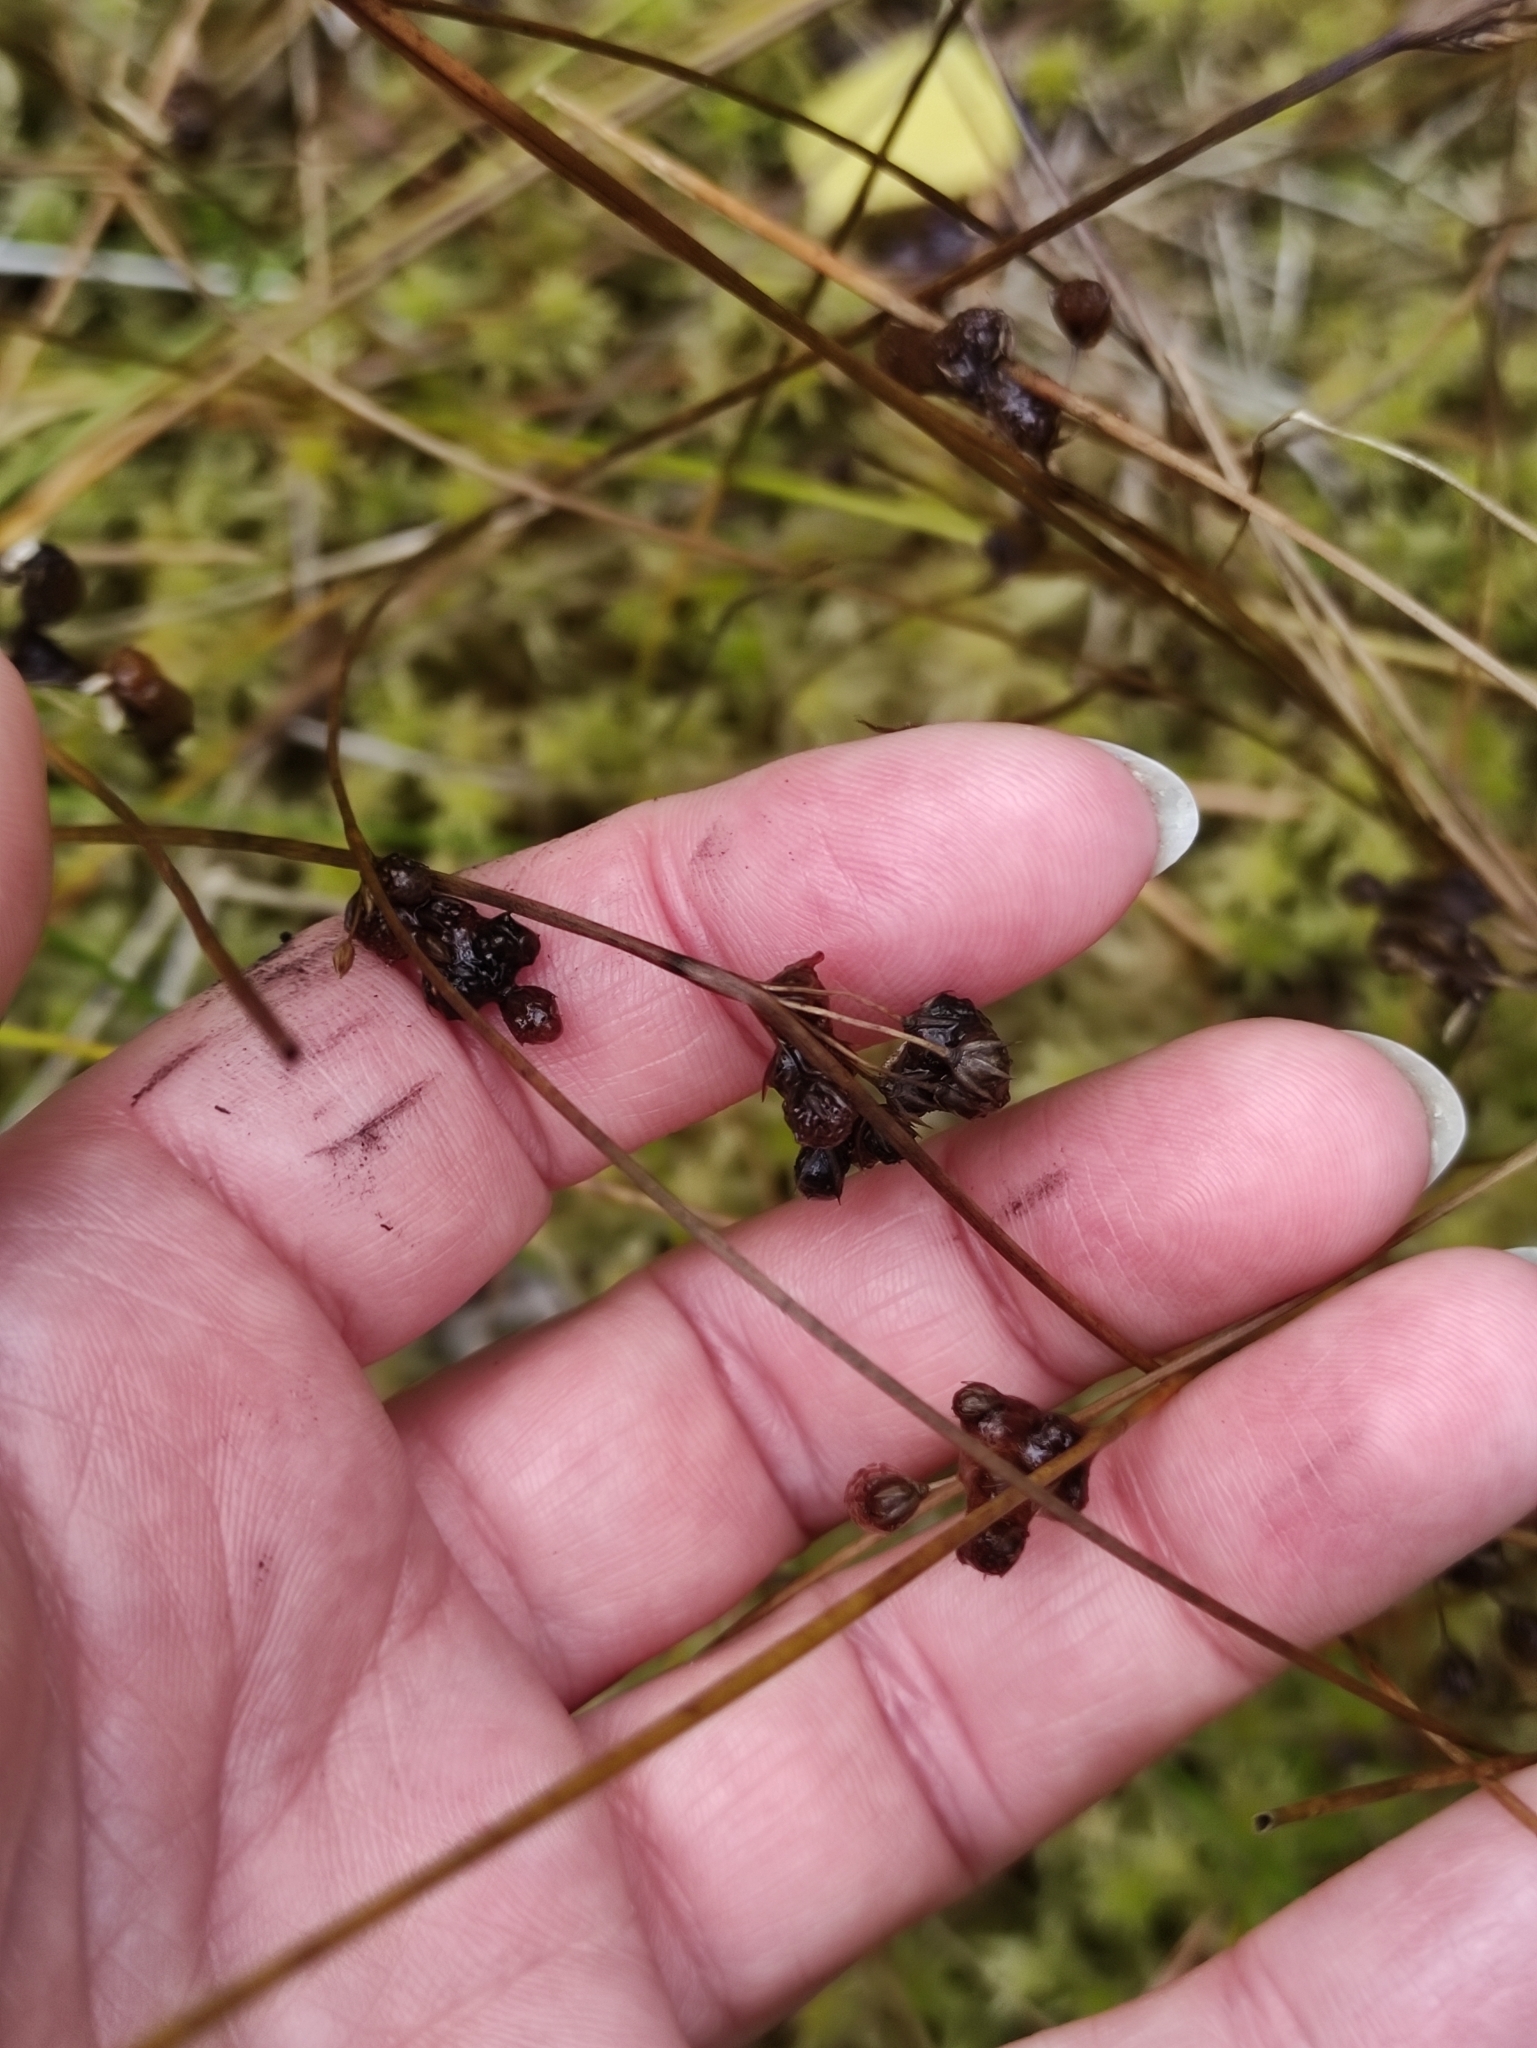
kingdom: Plantae
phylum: Tracheophyta
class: Liliopsida
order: Poales
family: Juncaceae
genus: Juncus
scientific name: Juncus filiformis
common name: Thread rush
